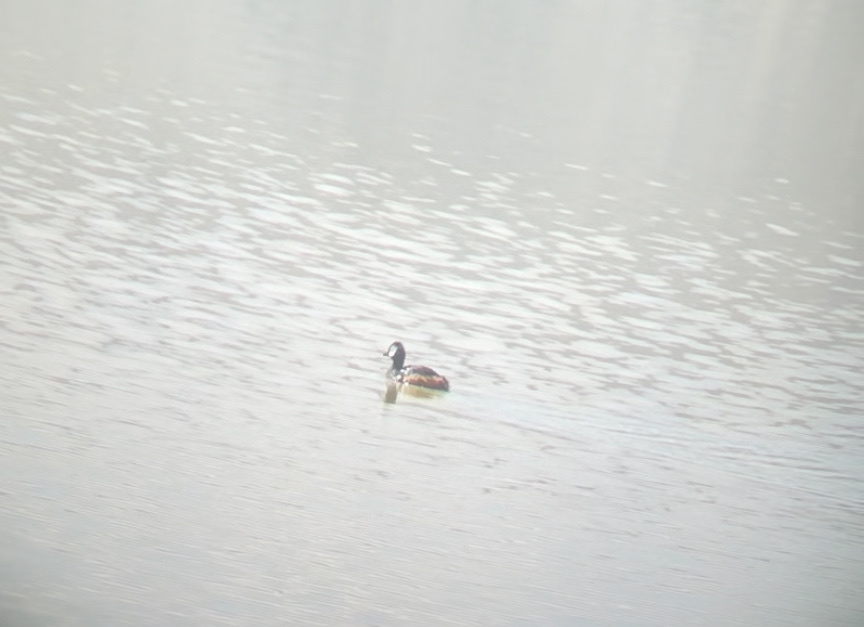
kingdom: Animalia
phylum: Chordata
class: Aves
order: Podicipediformes
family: Podicipedidae
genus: Rollandia
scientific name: Rollandia rolland
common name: White-tufted grebe
